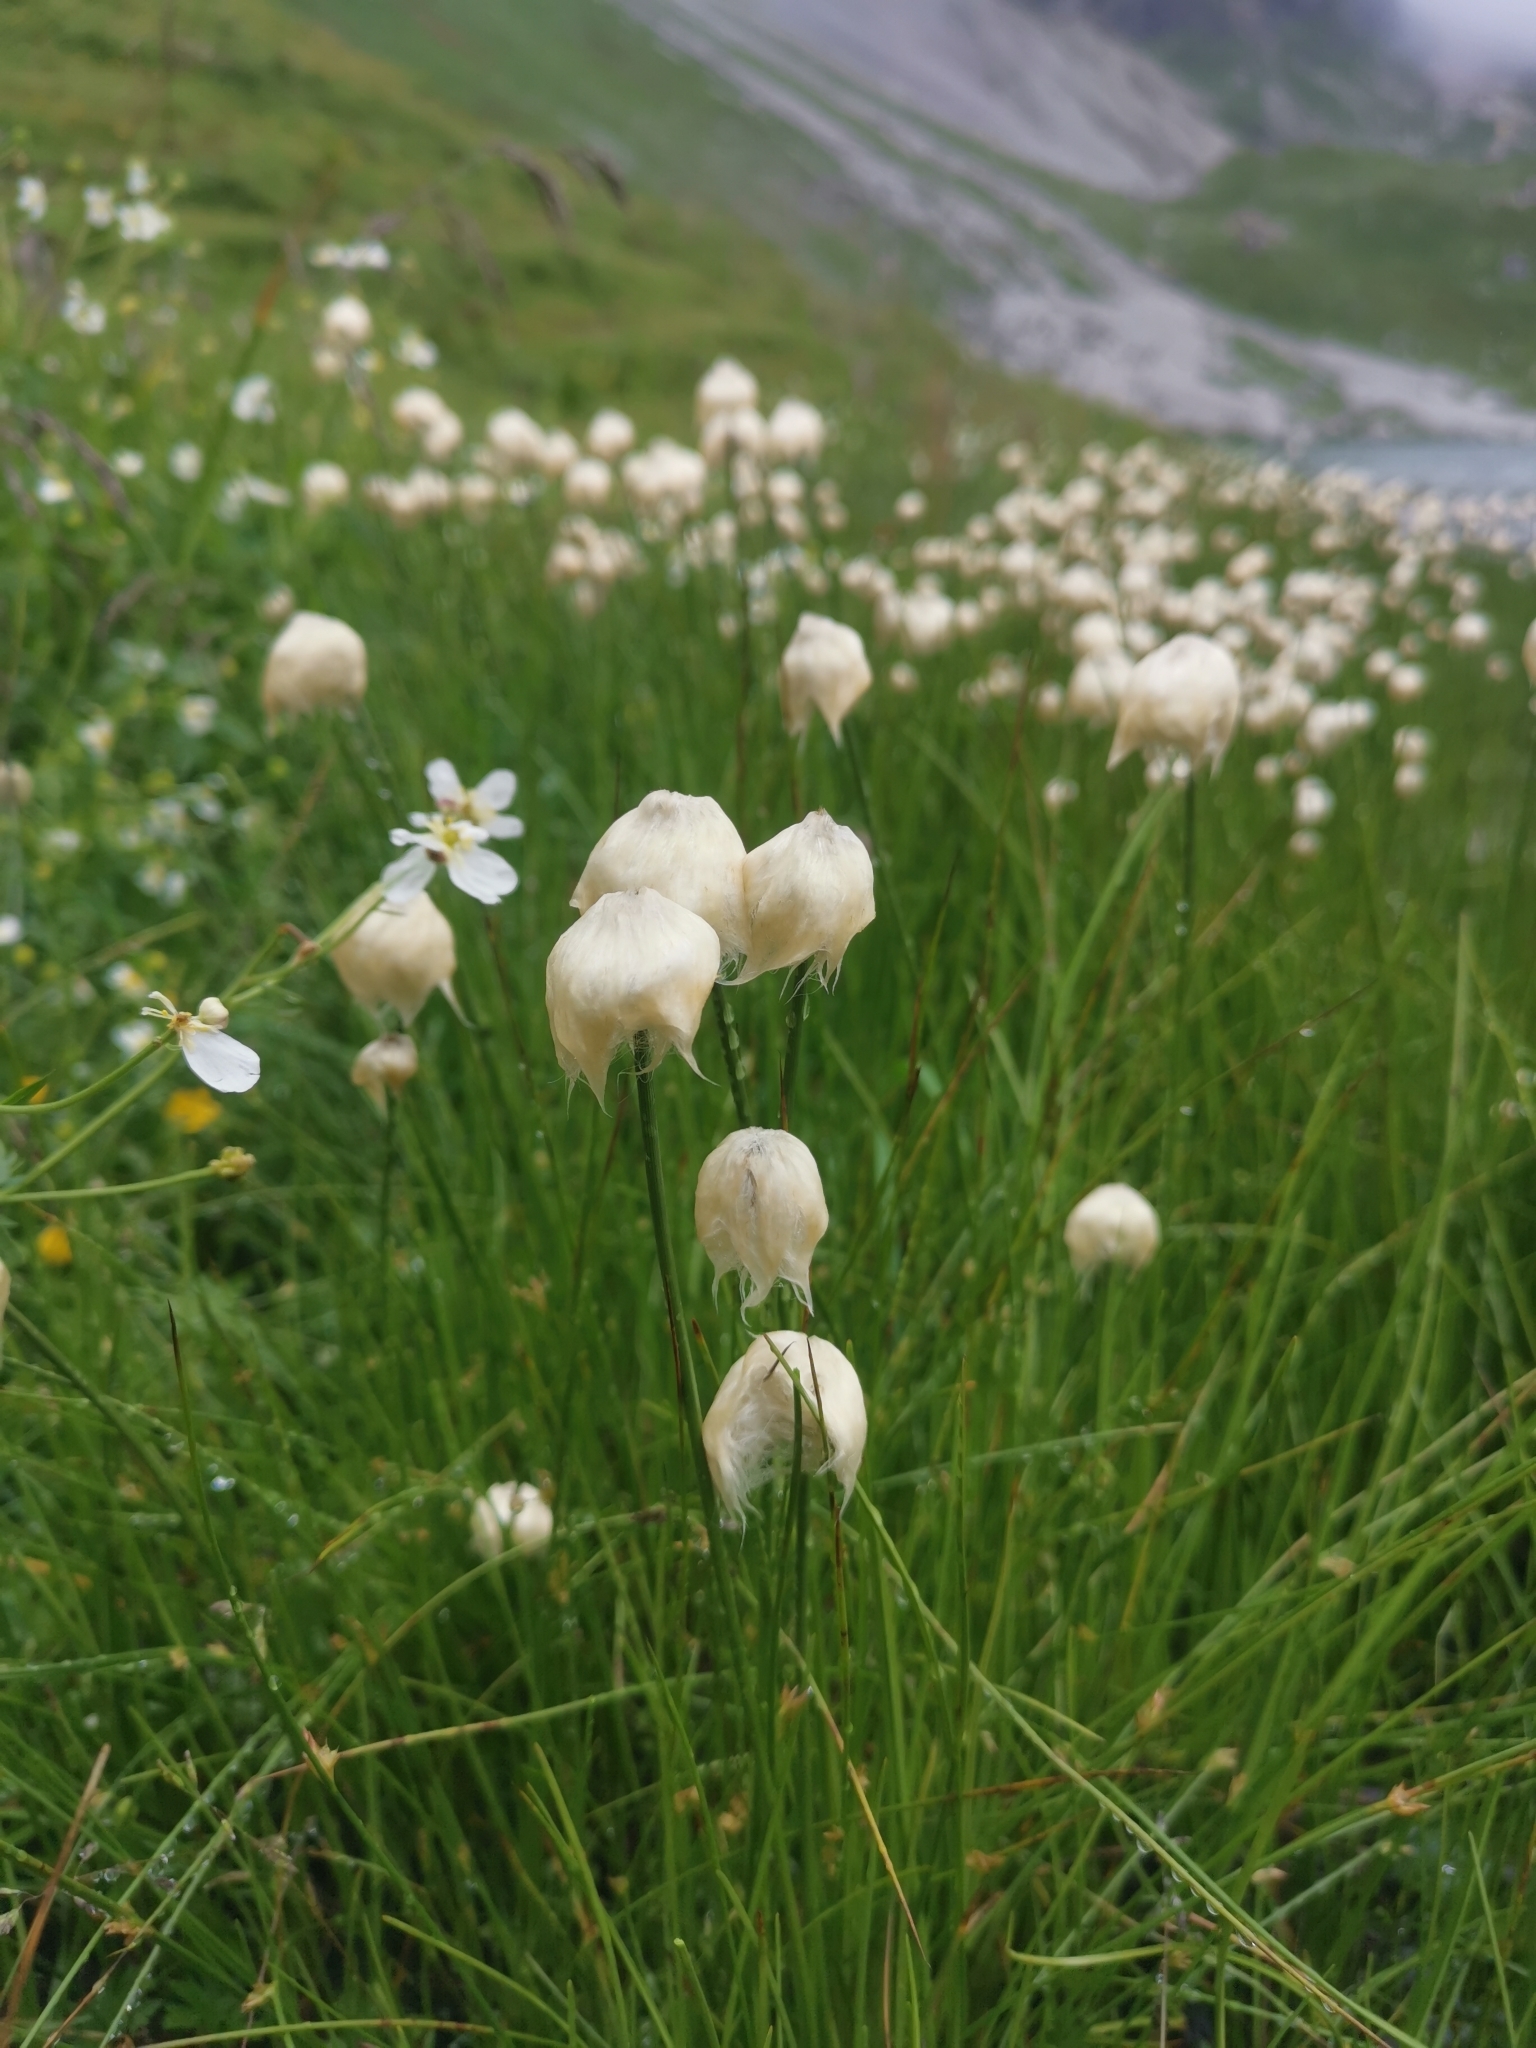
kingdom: Plantae
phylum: Tracheophyta
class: Liliopsida
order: Poales
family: Cyperaceae
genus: Eriophorum
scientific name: Eriophorum scheuchzeri
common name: Scheuchzer's cottongrass
